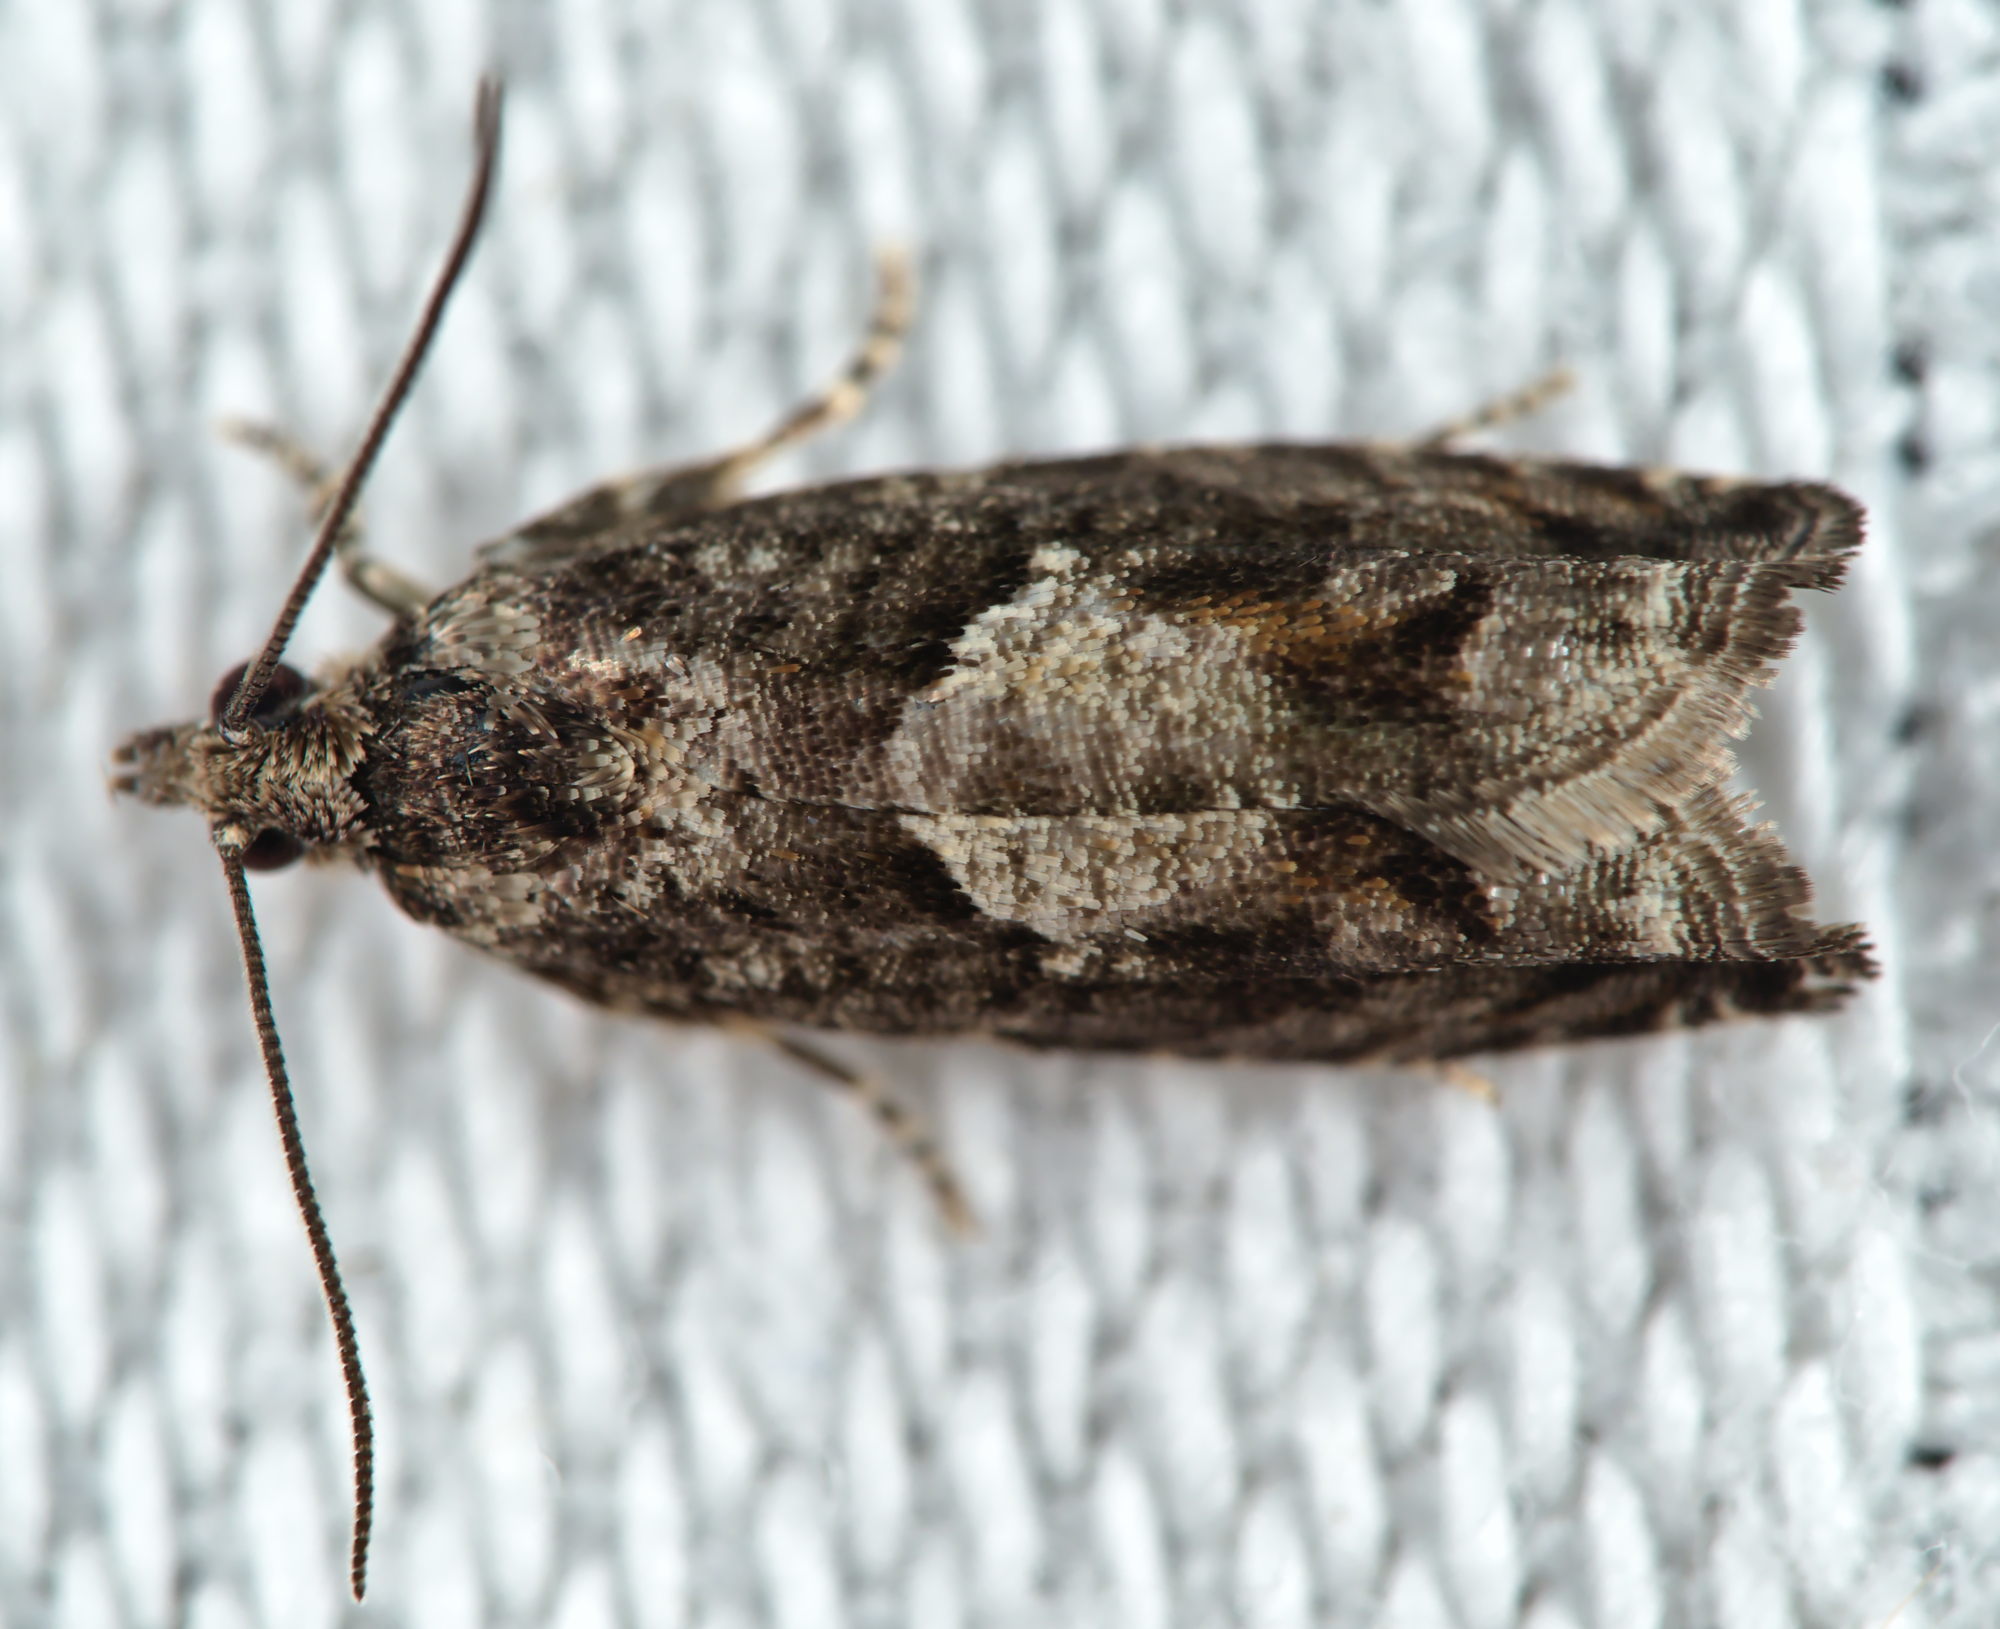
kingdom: Animalia
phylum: Arthropoda
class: Insecta
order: Lepidoptera
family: Tortricidae
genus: Epinotia
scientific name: Epinotia immundana
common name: Common birch bell
